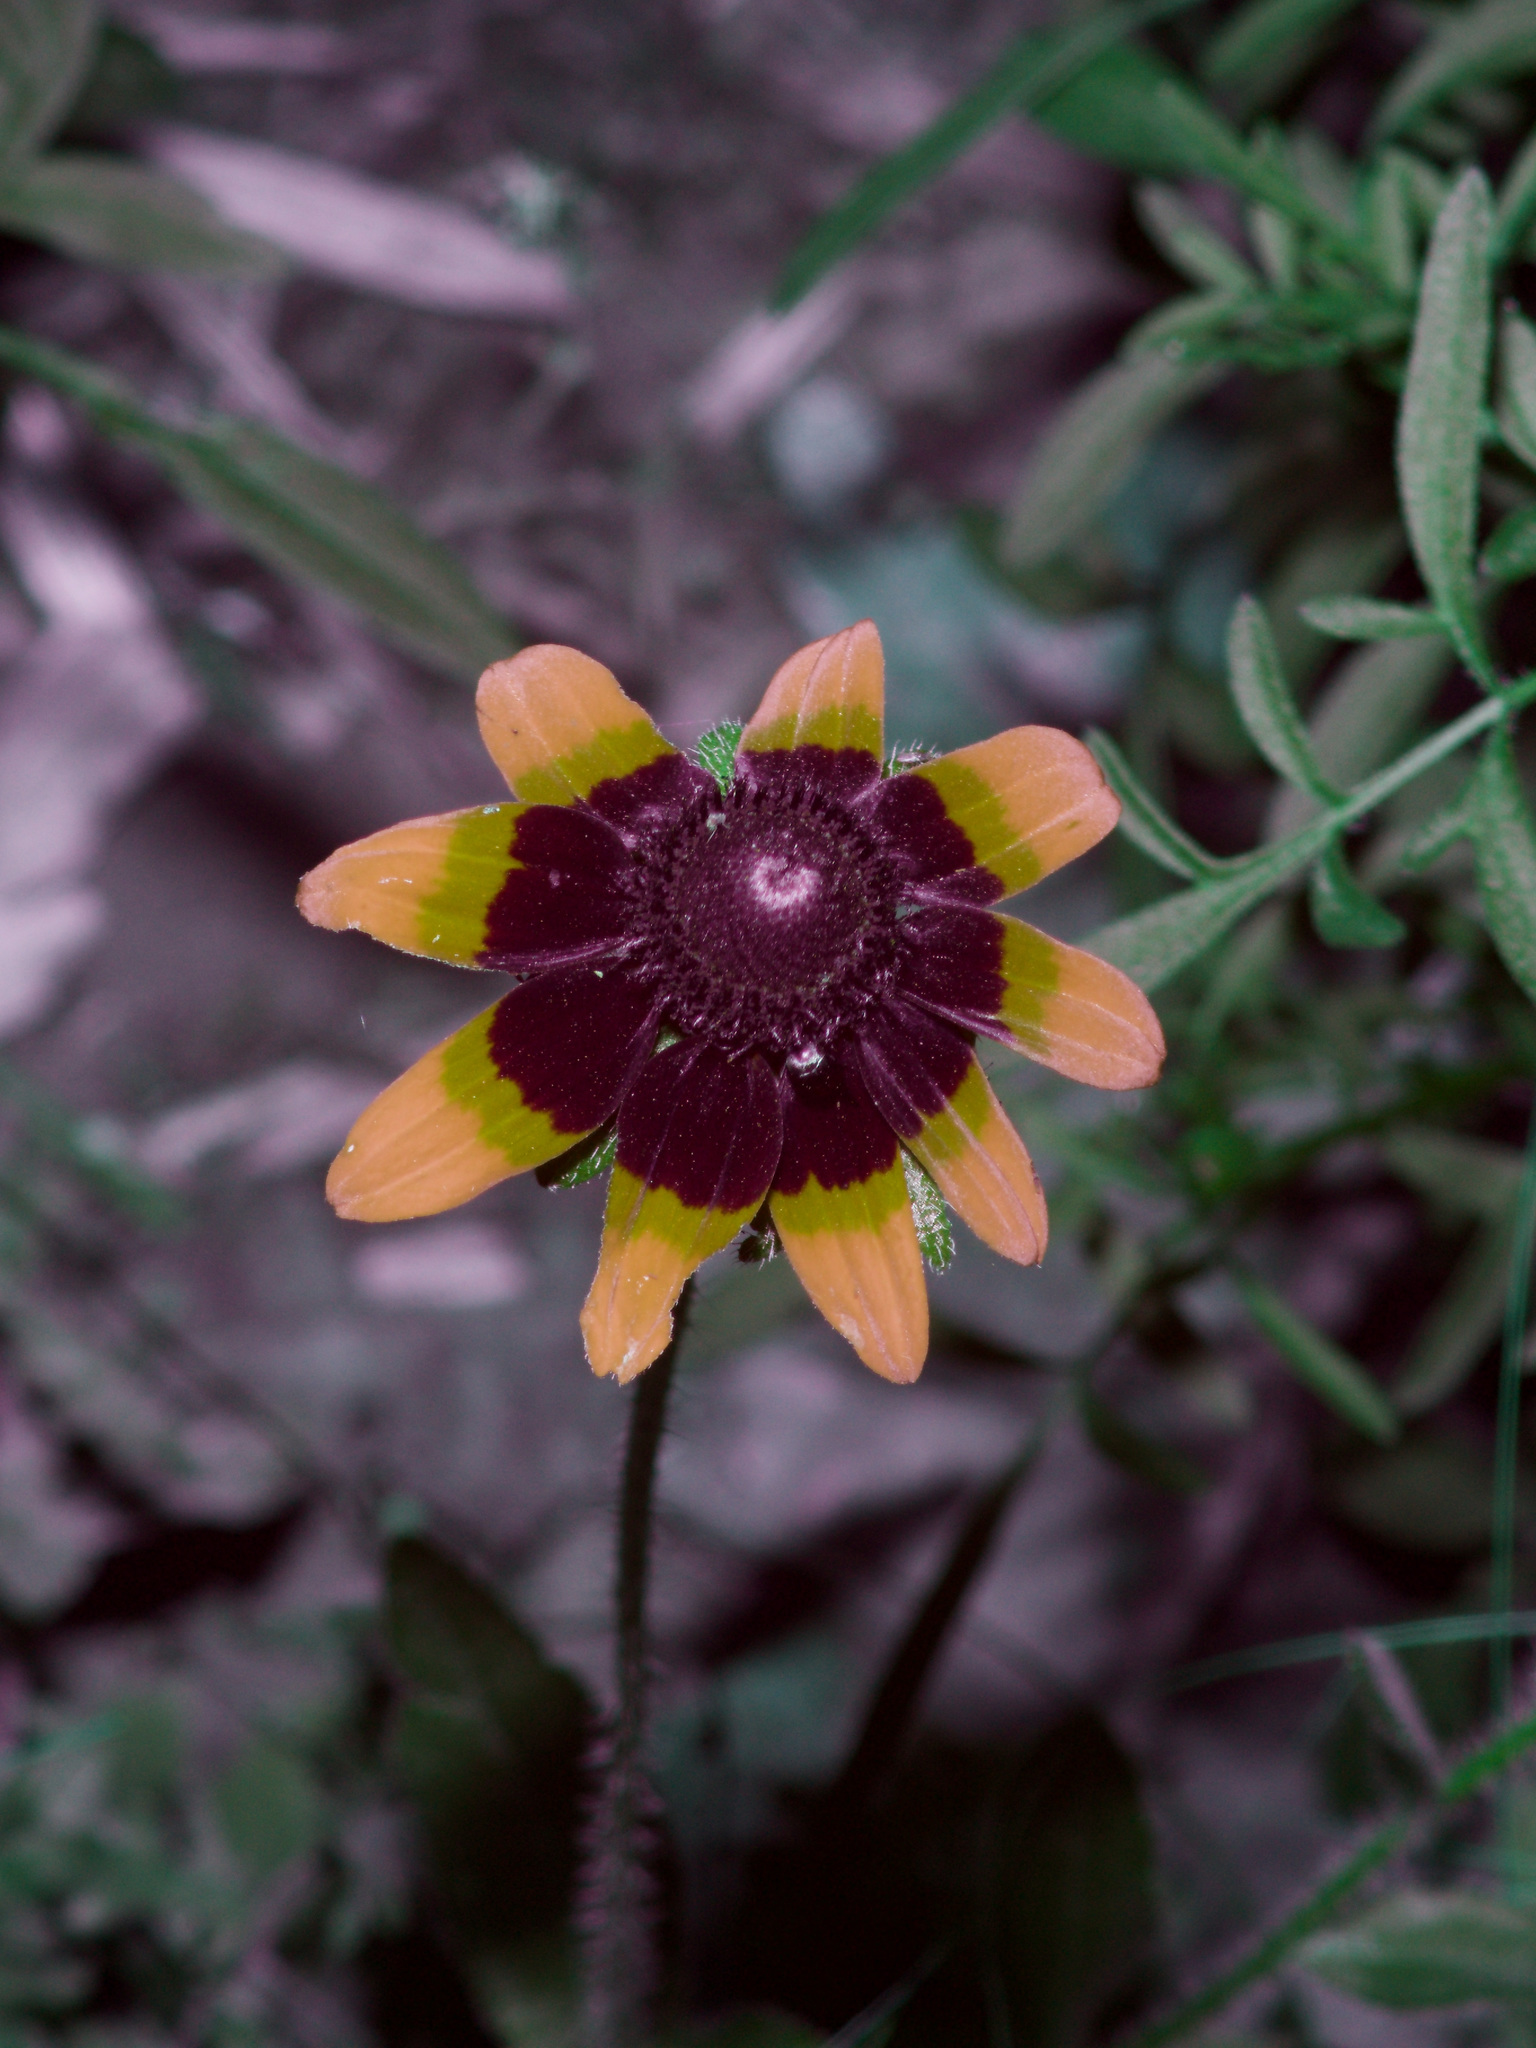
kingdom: Plantae
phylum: Tracheophyta
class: Magnoliopsida
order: Asterales
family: Asteraceae
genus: Rudbeckia
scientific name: Rudbeckia hirta
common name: Black-eyed-susan
